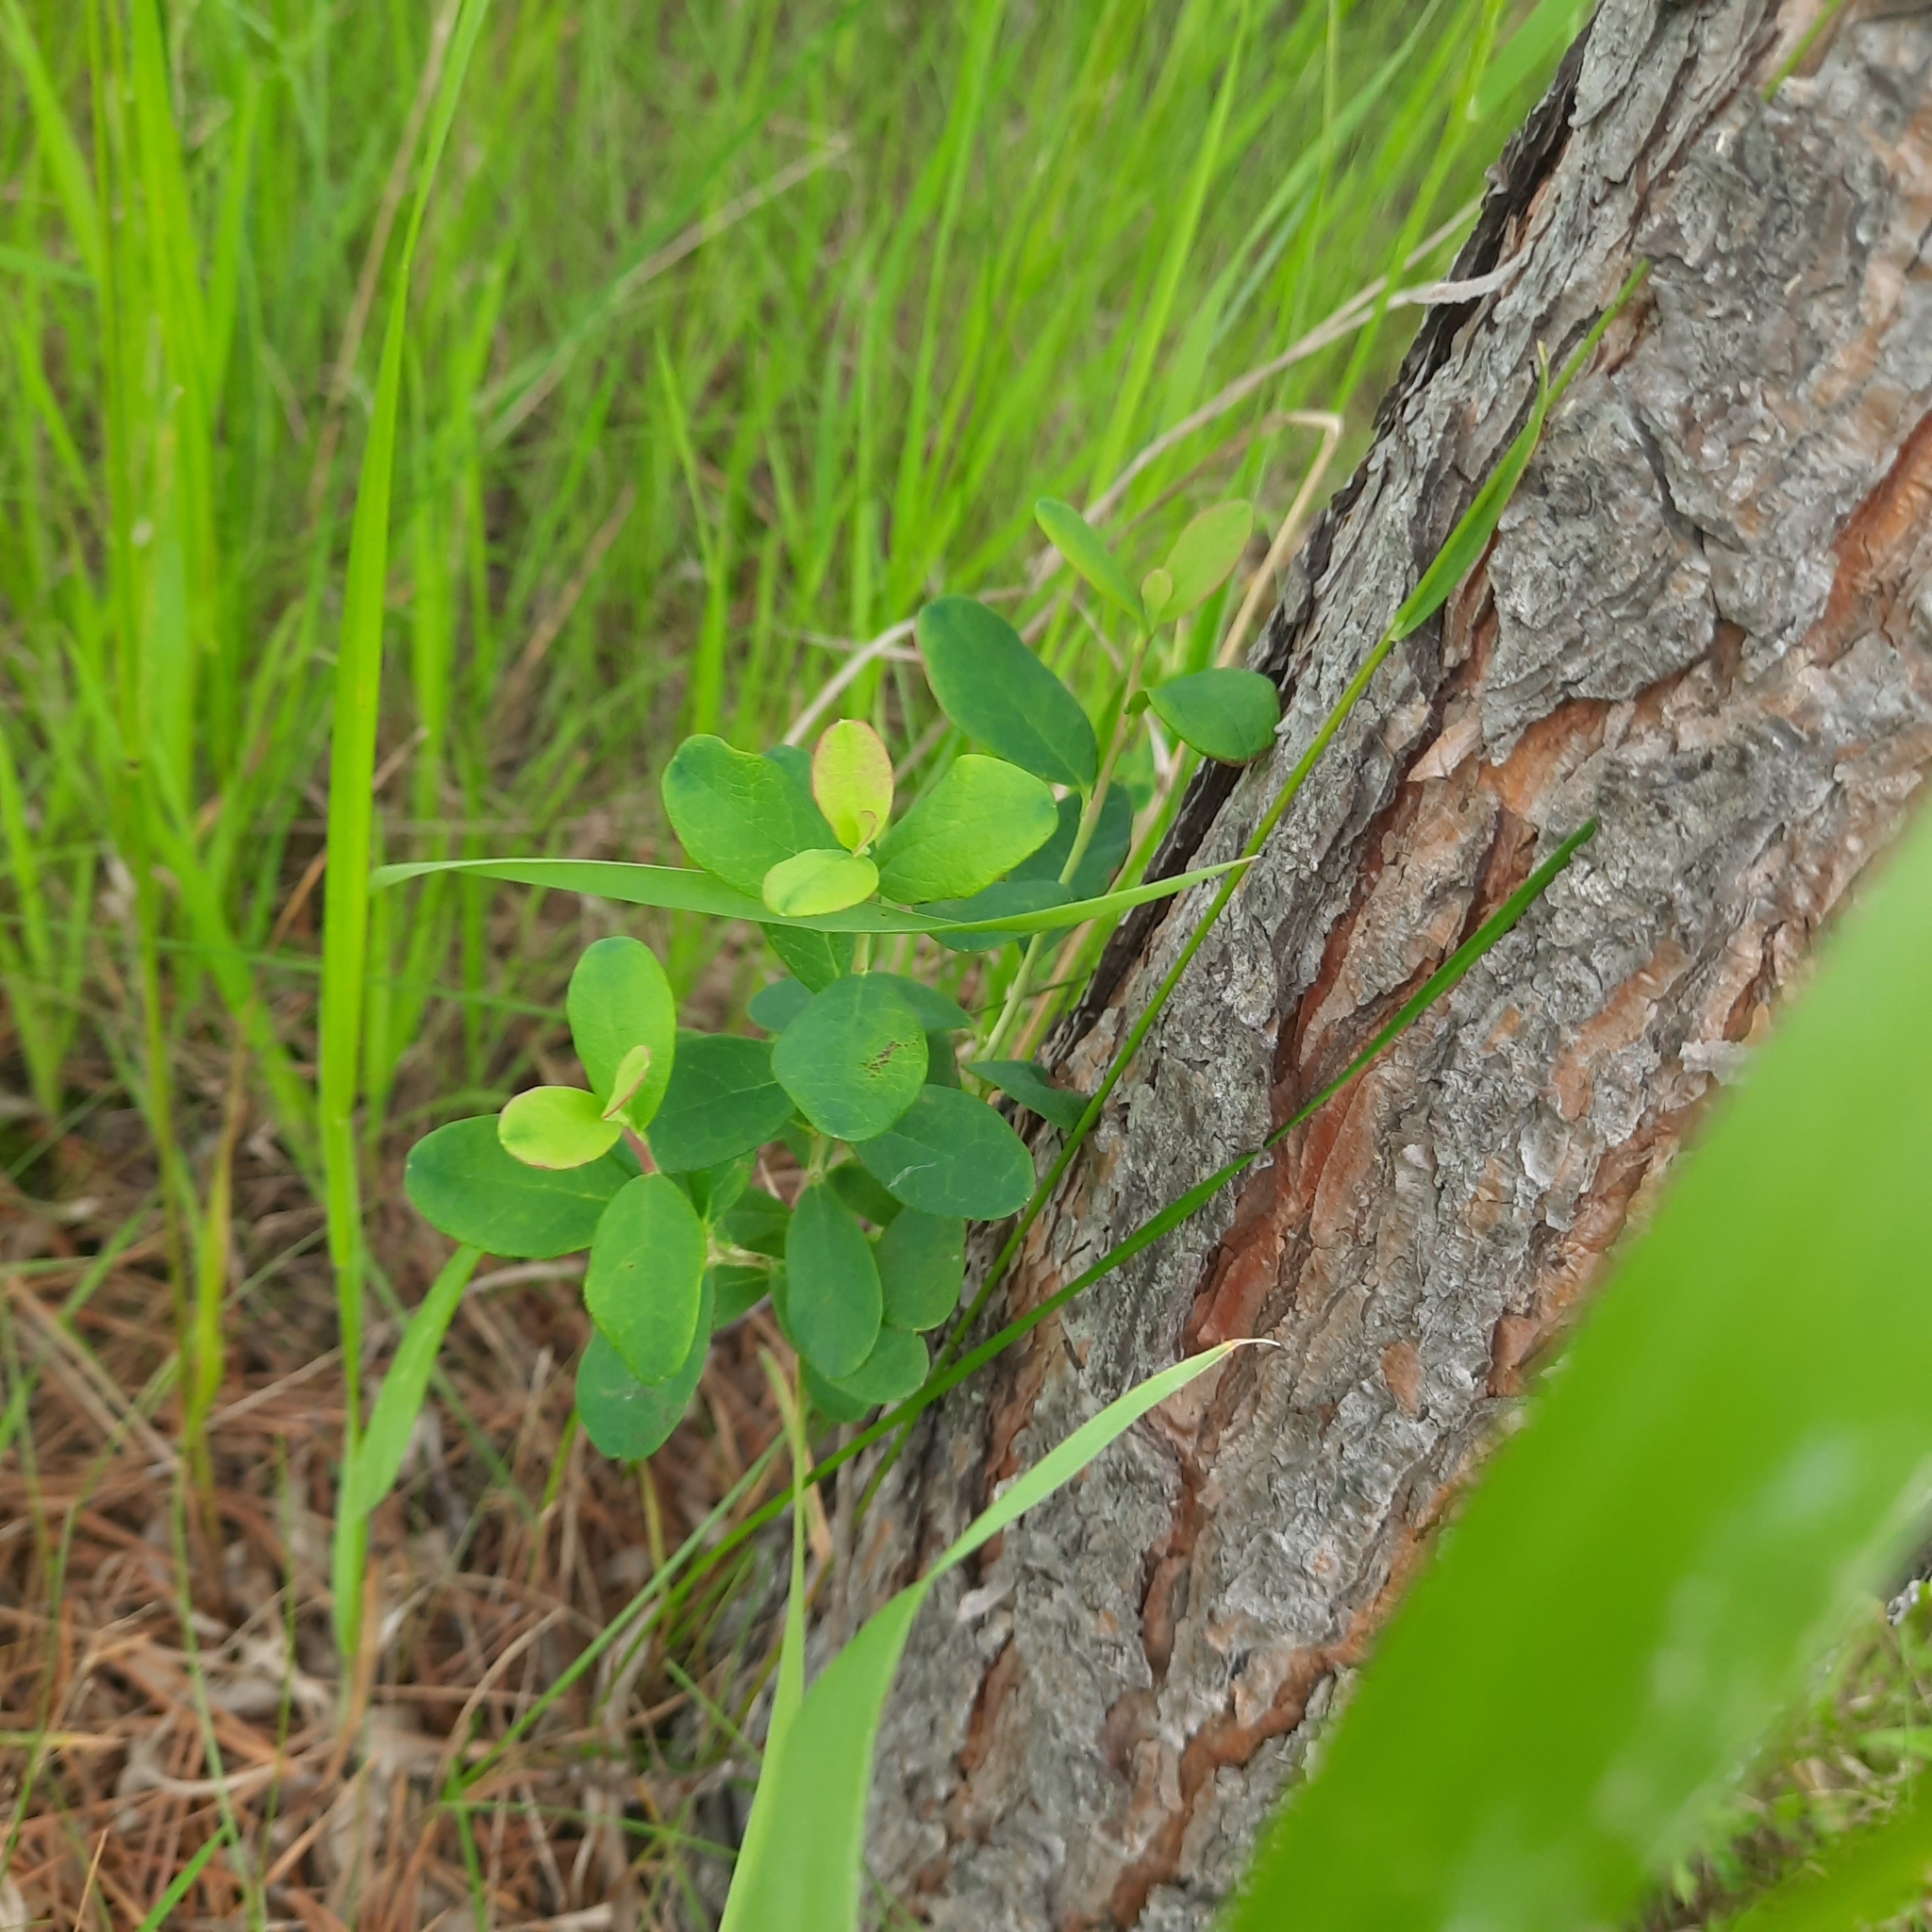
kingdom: Plantae
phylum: Tracheophyta
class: Magnoliopsida
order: Ericales
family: Ericaceae
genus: Vaccinium
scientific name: Vaccinium uliginosum
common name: Bog bilberry
